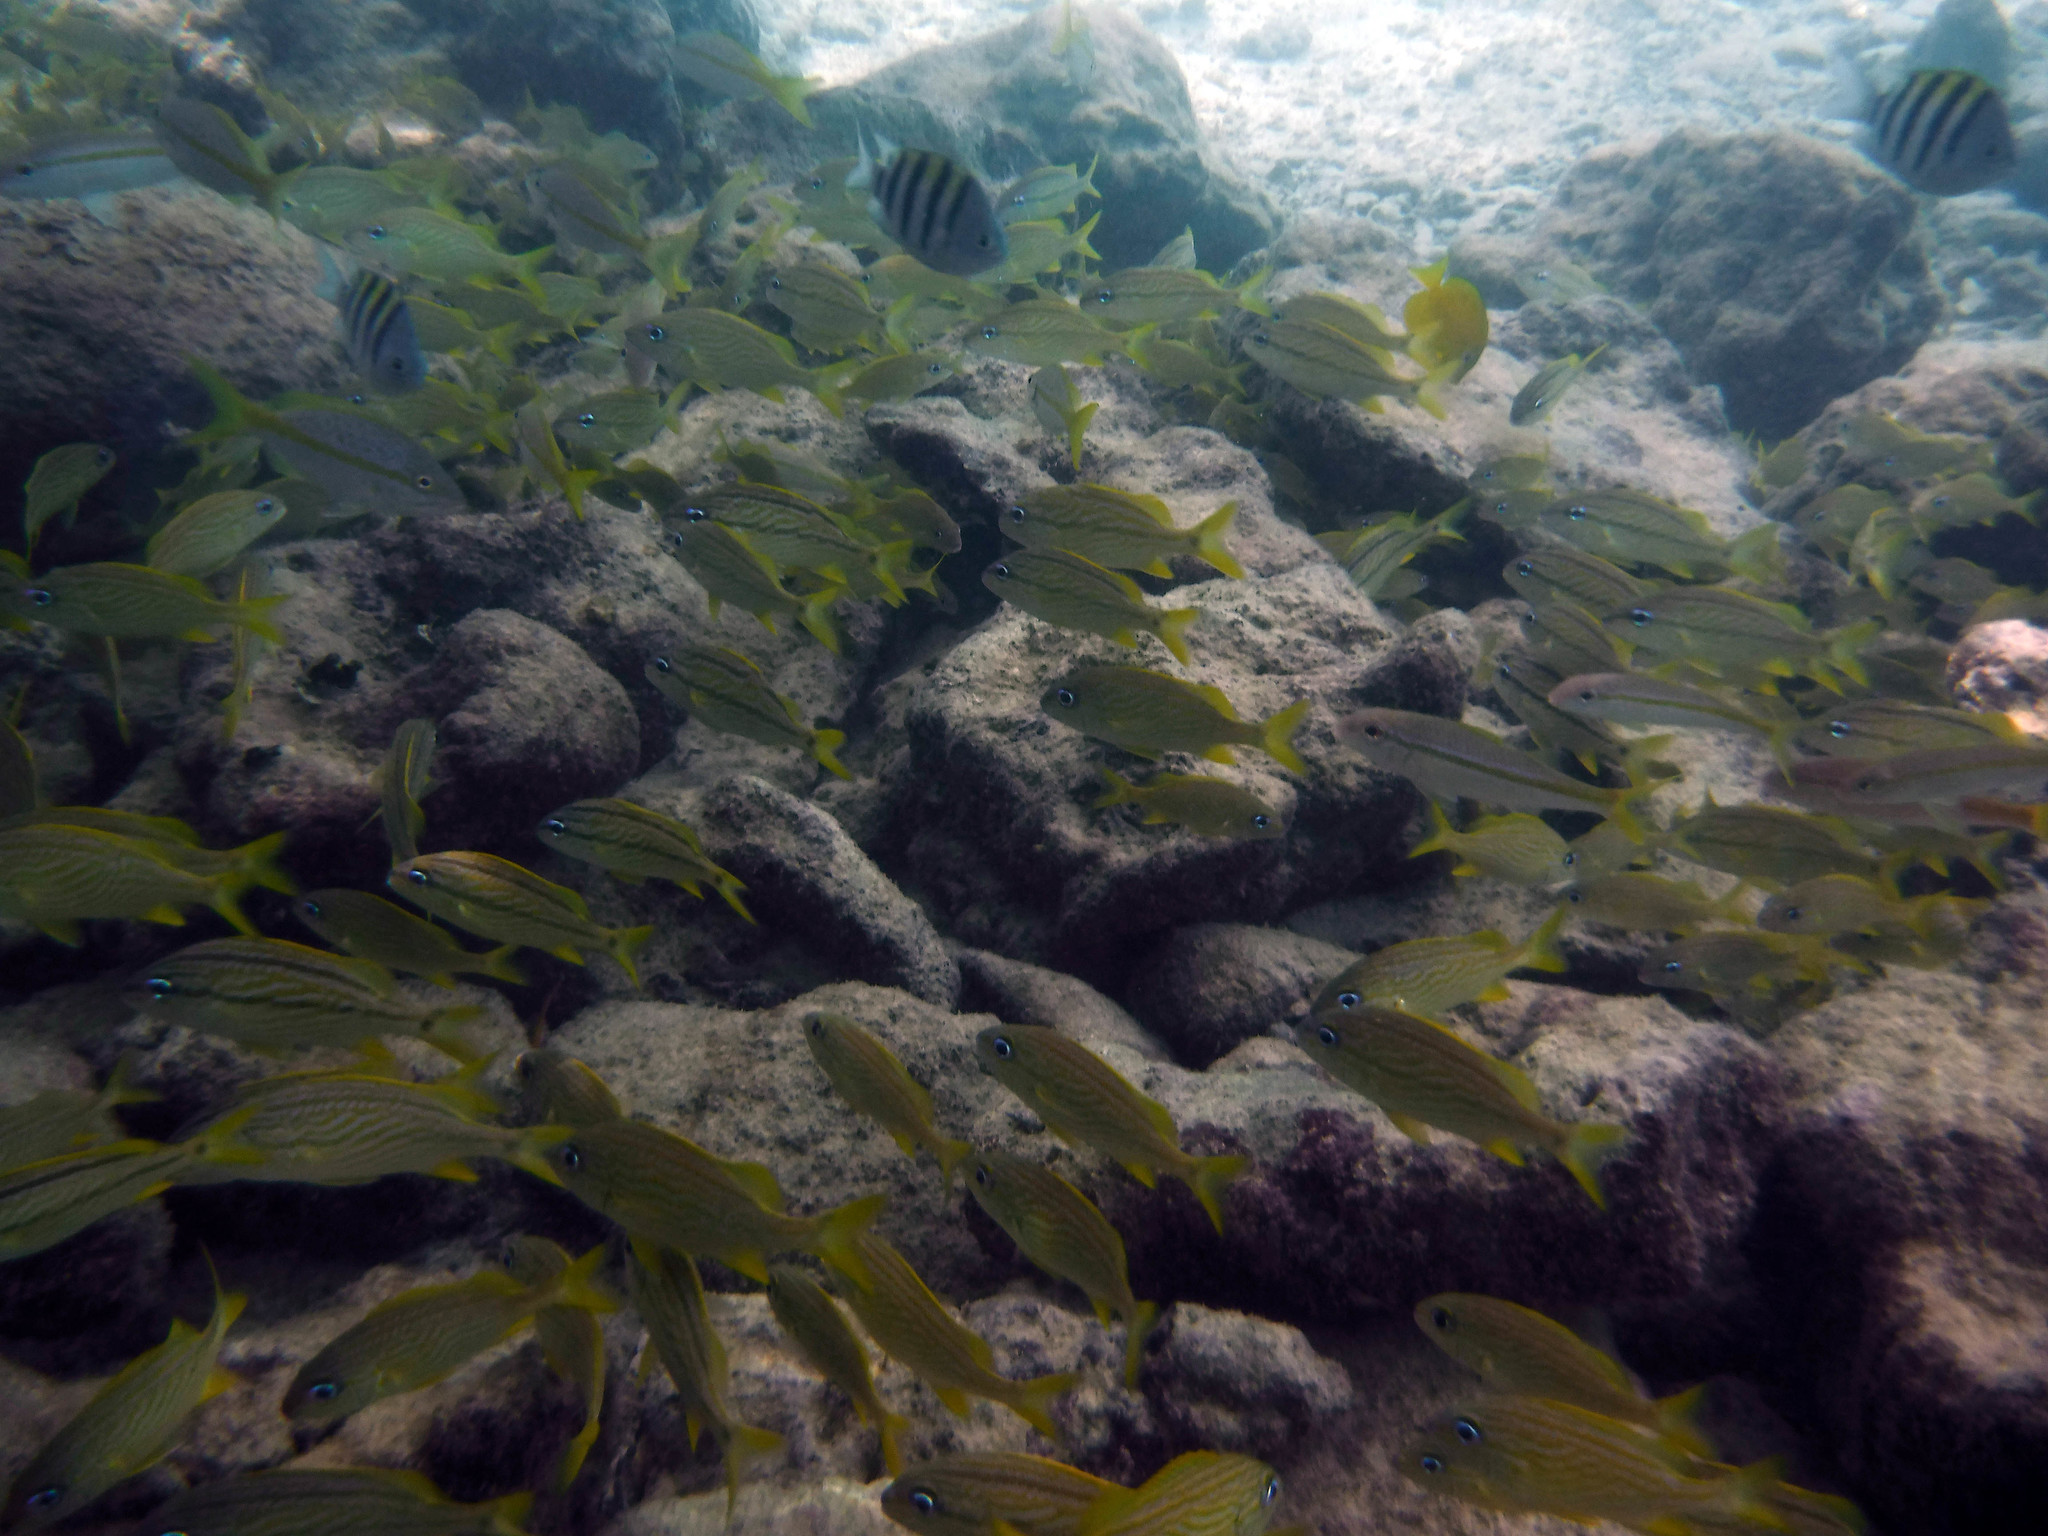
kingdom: Animalia
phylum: Chordata
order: Perciformes
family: Haemulidae
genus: Haemulon
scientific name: Haemulon flavolineatum
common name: French grunt
